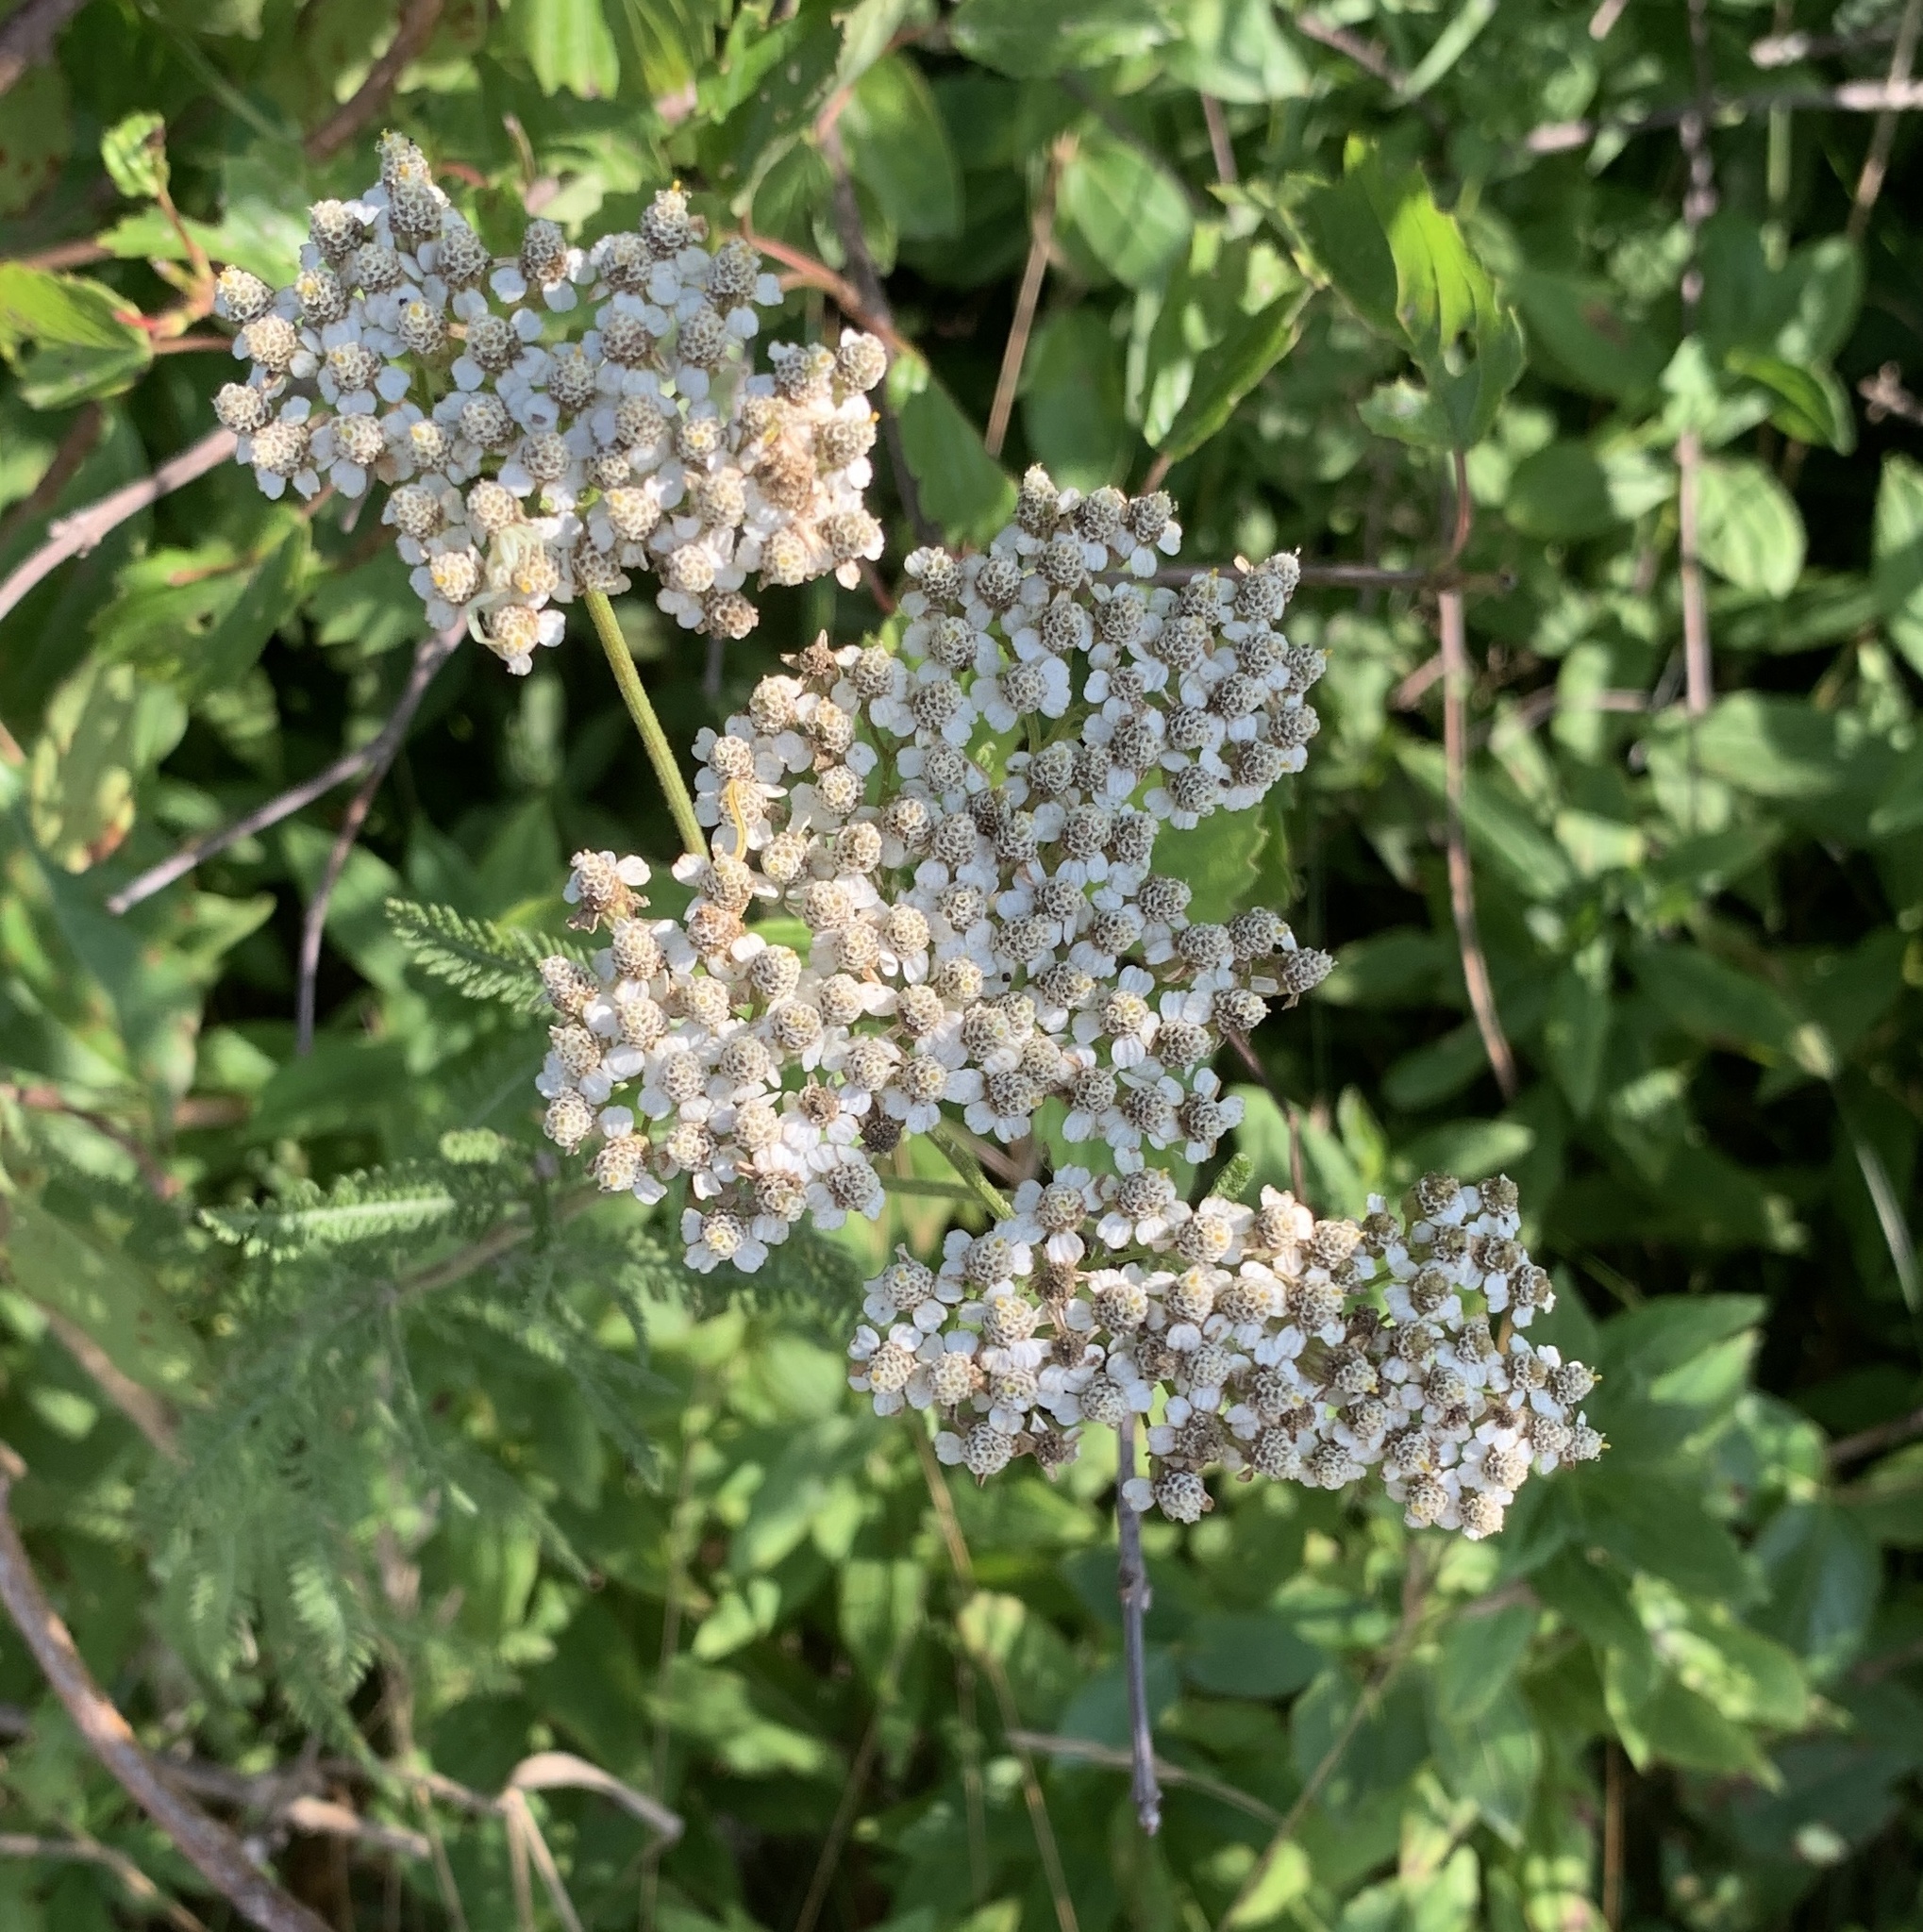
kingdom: Plantae
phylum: Tracheophyta
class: Magnoliopsida
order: Asterales
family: Asteraceae
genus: Achillea
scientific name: Achillea millefolium
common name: Yarrow
